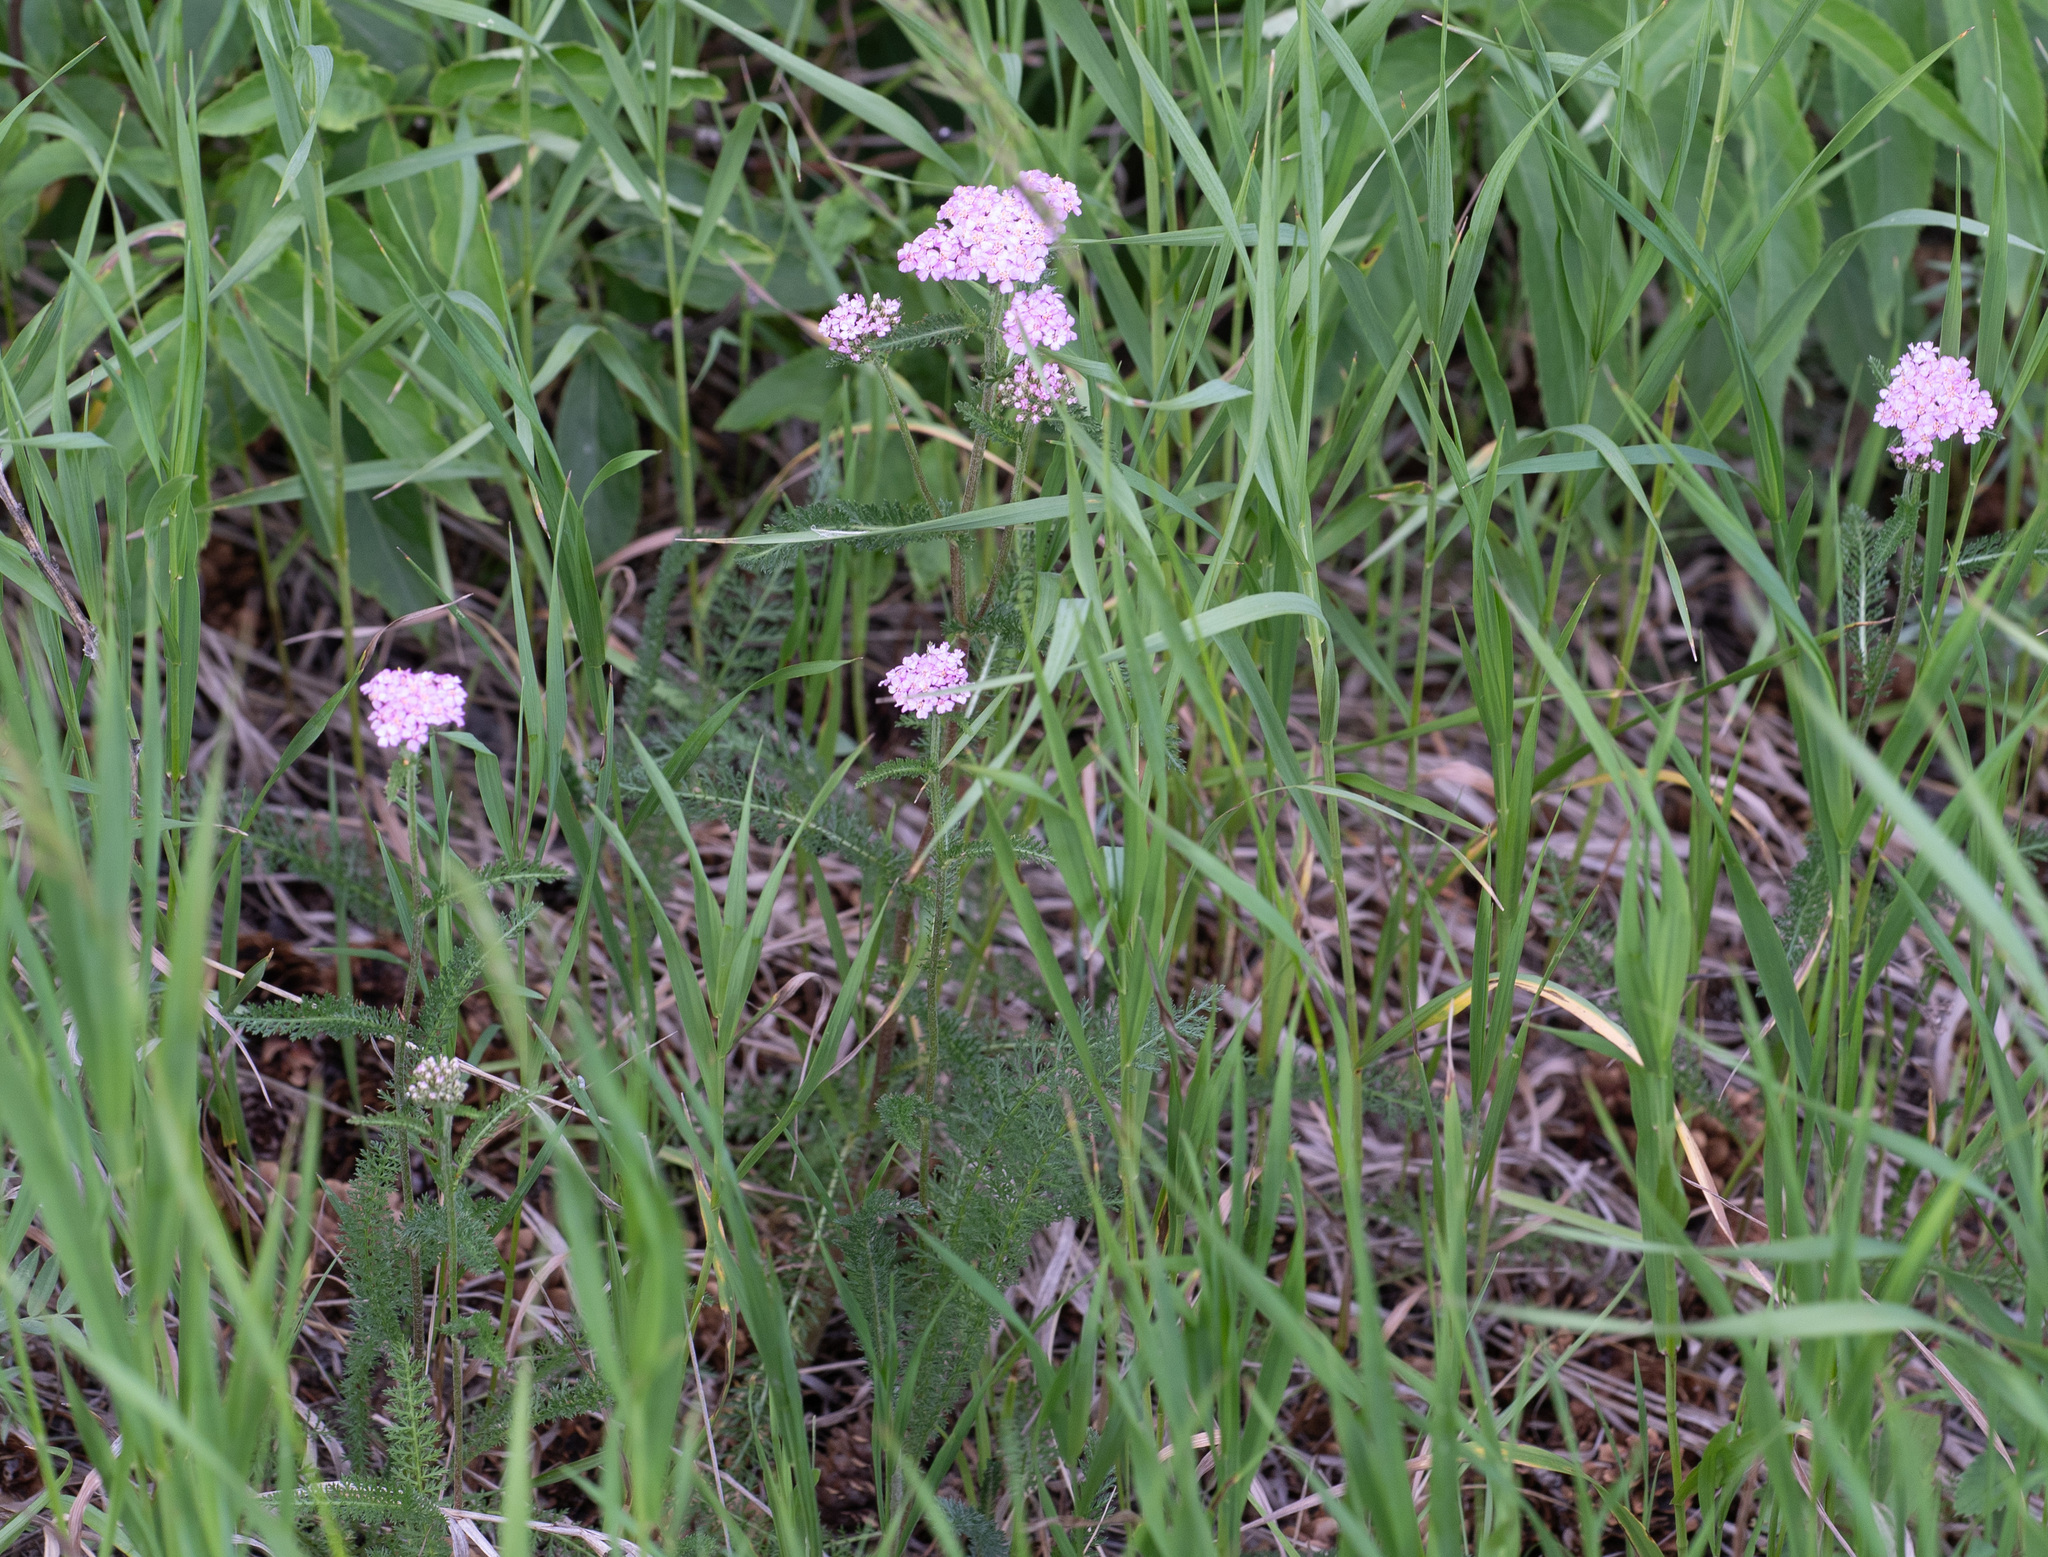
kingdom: Plantae
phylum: Tracheophyta
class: Magnoliopsida
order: Asterales
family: Asteraceae
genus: Achillea
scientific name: Achillea millefolium
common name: Yarrow
